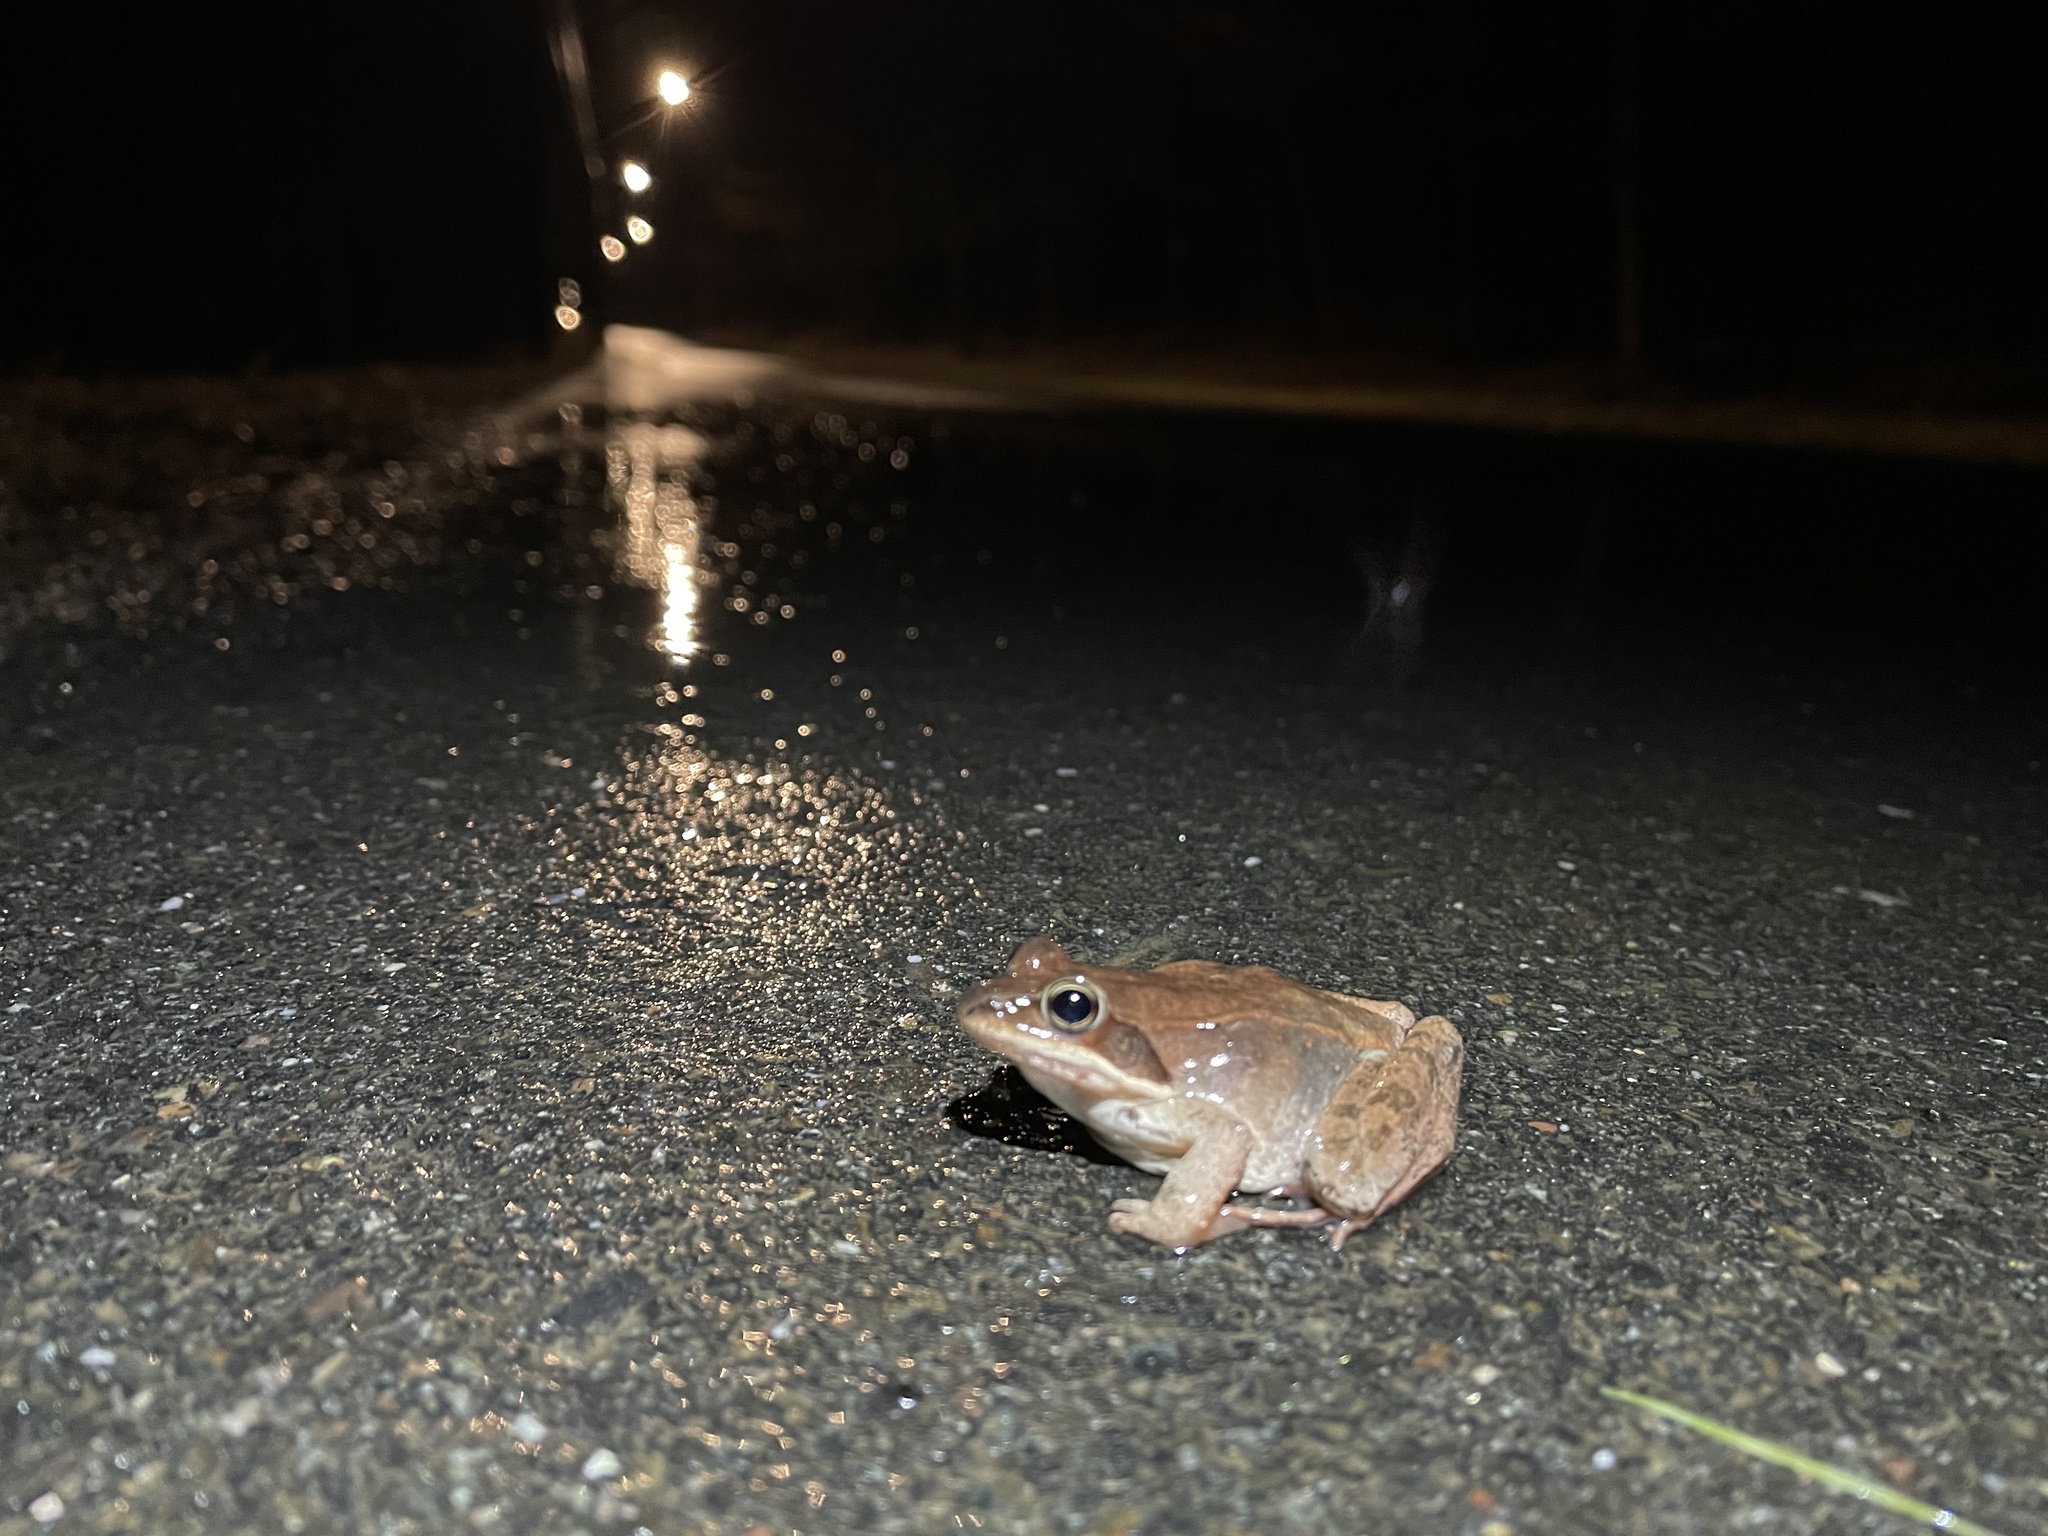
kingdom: Animalia
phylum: Chordata
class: Amphibia
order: Anura
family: Ranidae
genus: Lithobates
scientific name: Lithobates sylvaticus
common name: Wood frog
